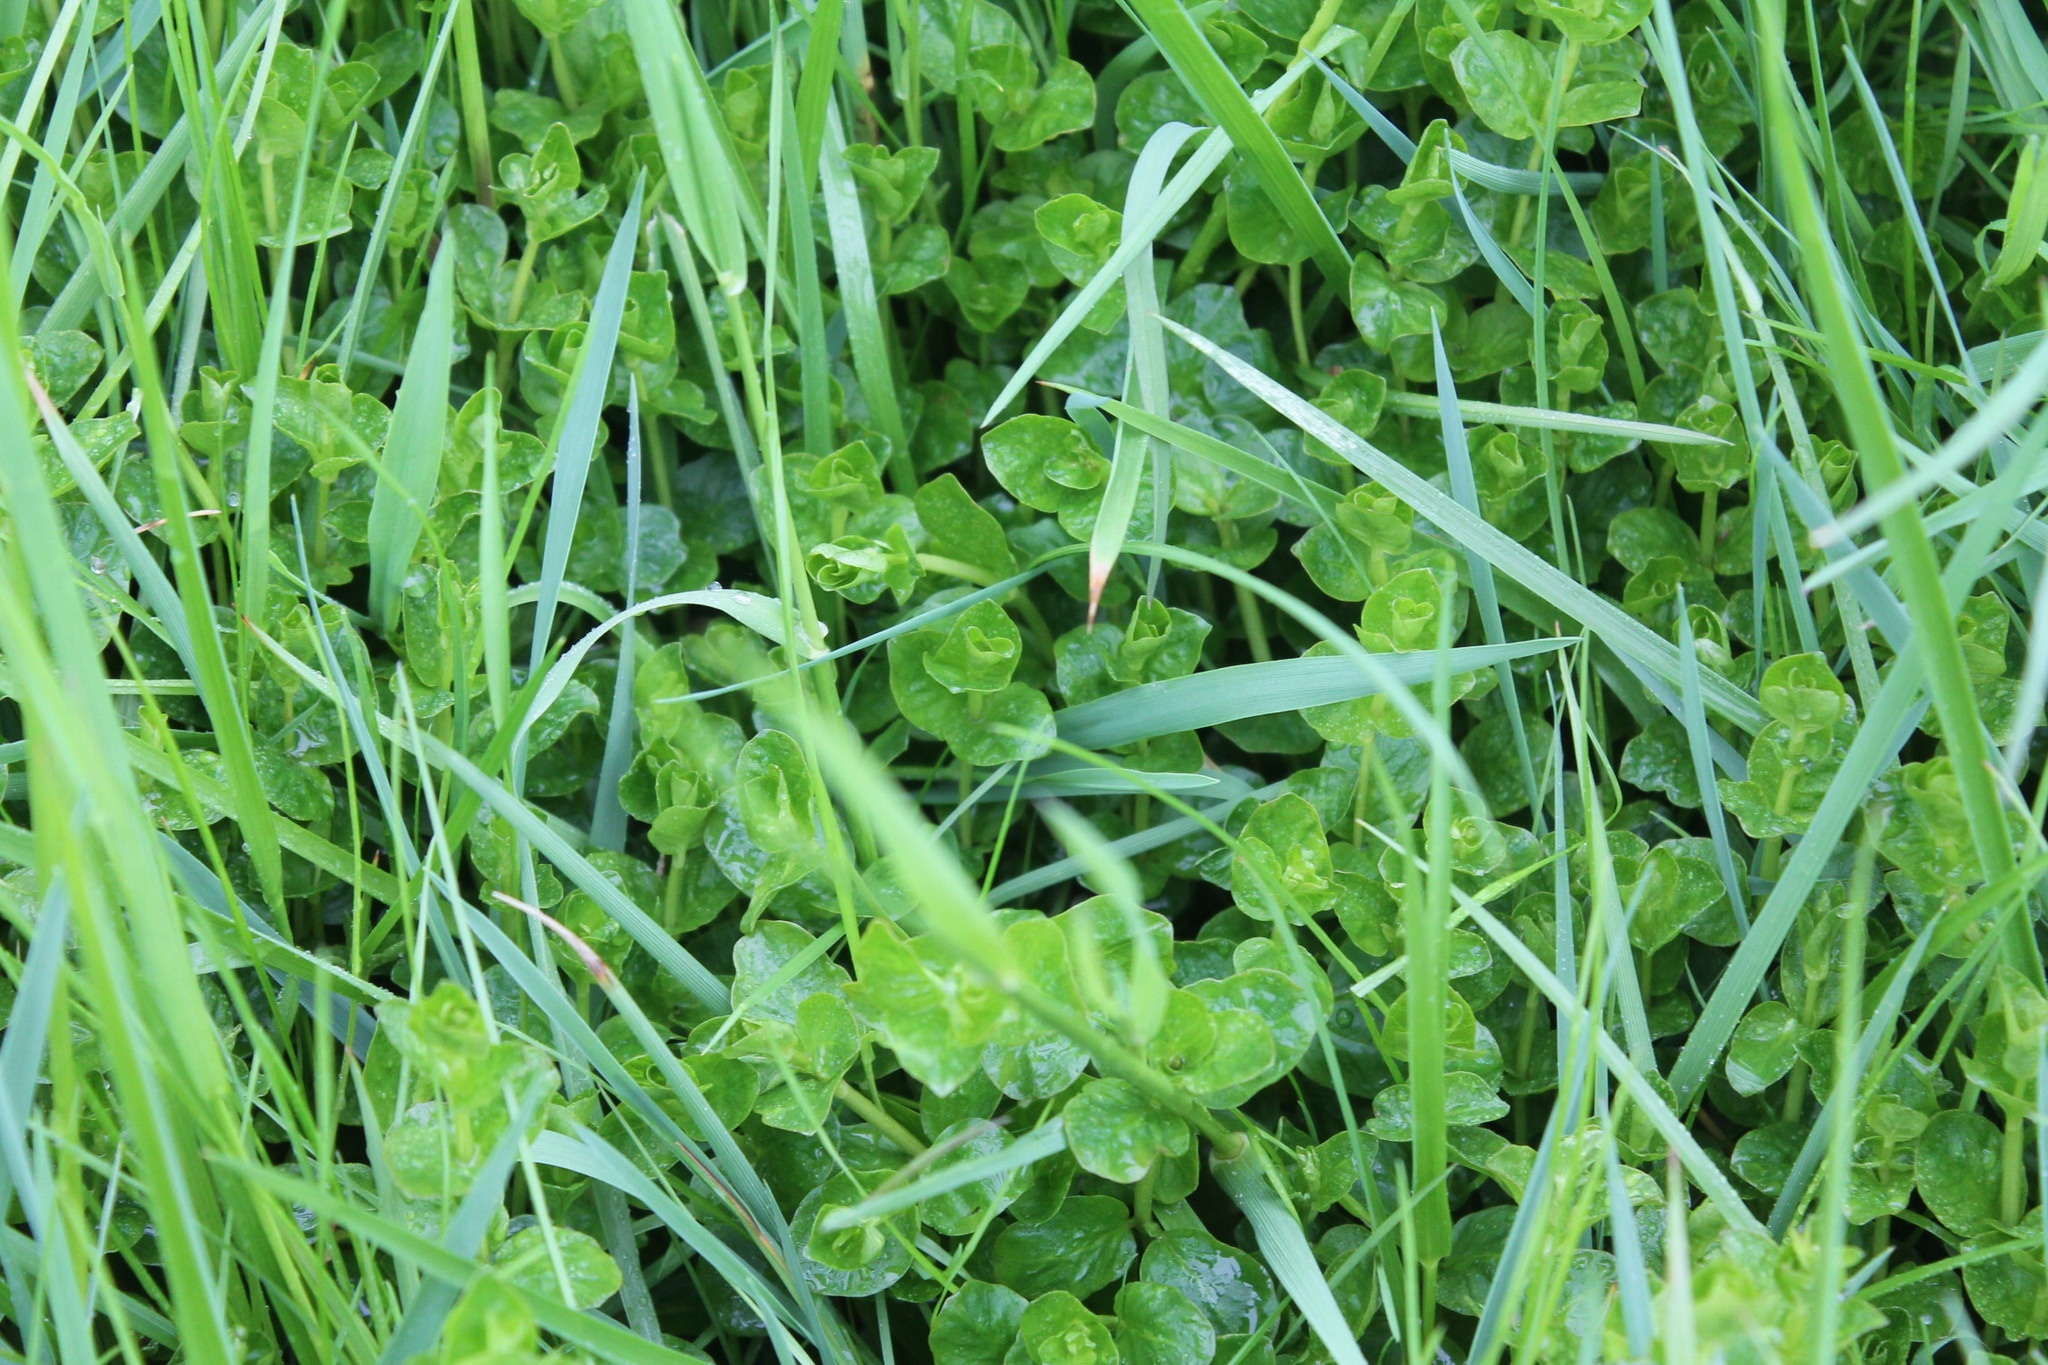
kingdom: Plantae
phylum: Tracheophyta
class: Magnoliopsida
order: Ericales
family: Primulaceae
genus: Lysimachia
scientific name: Lysimachia nummularia
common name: Moneywort
